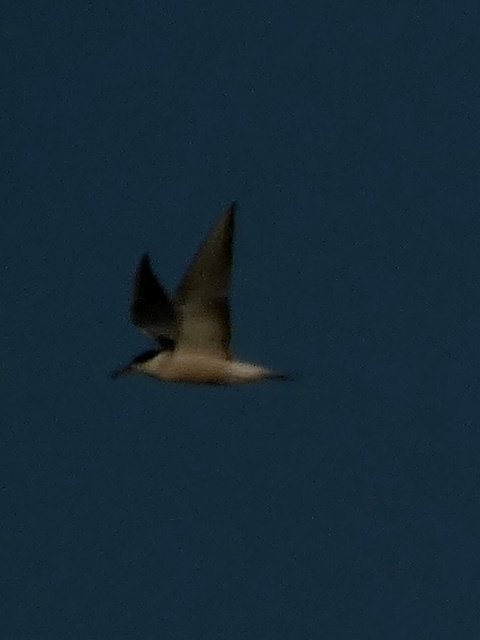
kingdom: Animalia
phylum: Chordata
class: Aves
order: Charadriiformes
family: Laridae
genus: Sterna
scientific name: Sterna hirundo
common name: Common tern
